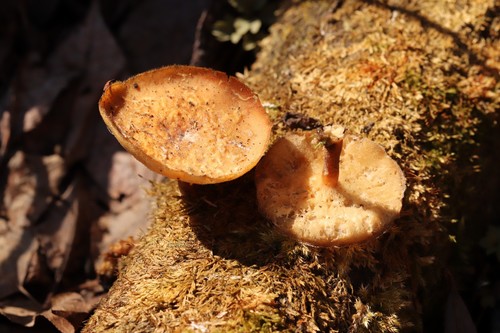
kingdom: Fungi
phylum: Basidiomycota
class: Agaricomycetes
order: Polyporales
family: Polyporaceae
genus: Lentinus
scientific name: Lentinus substrictus
